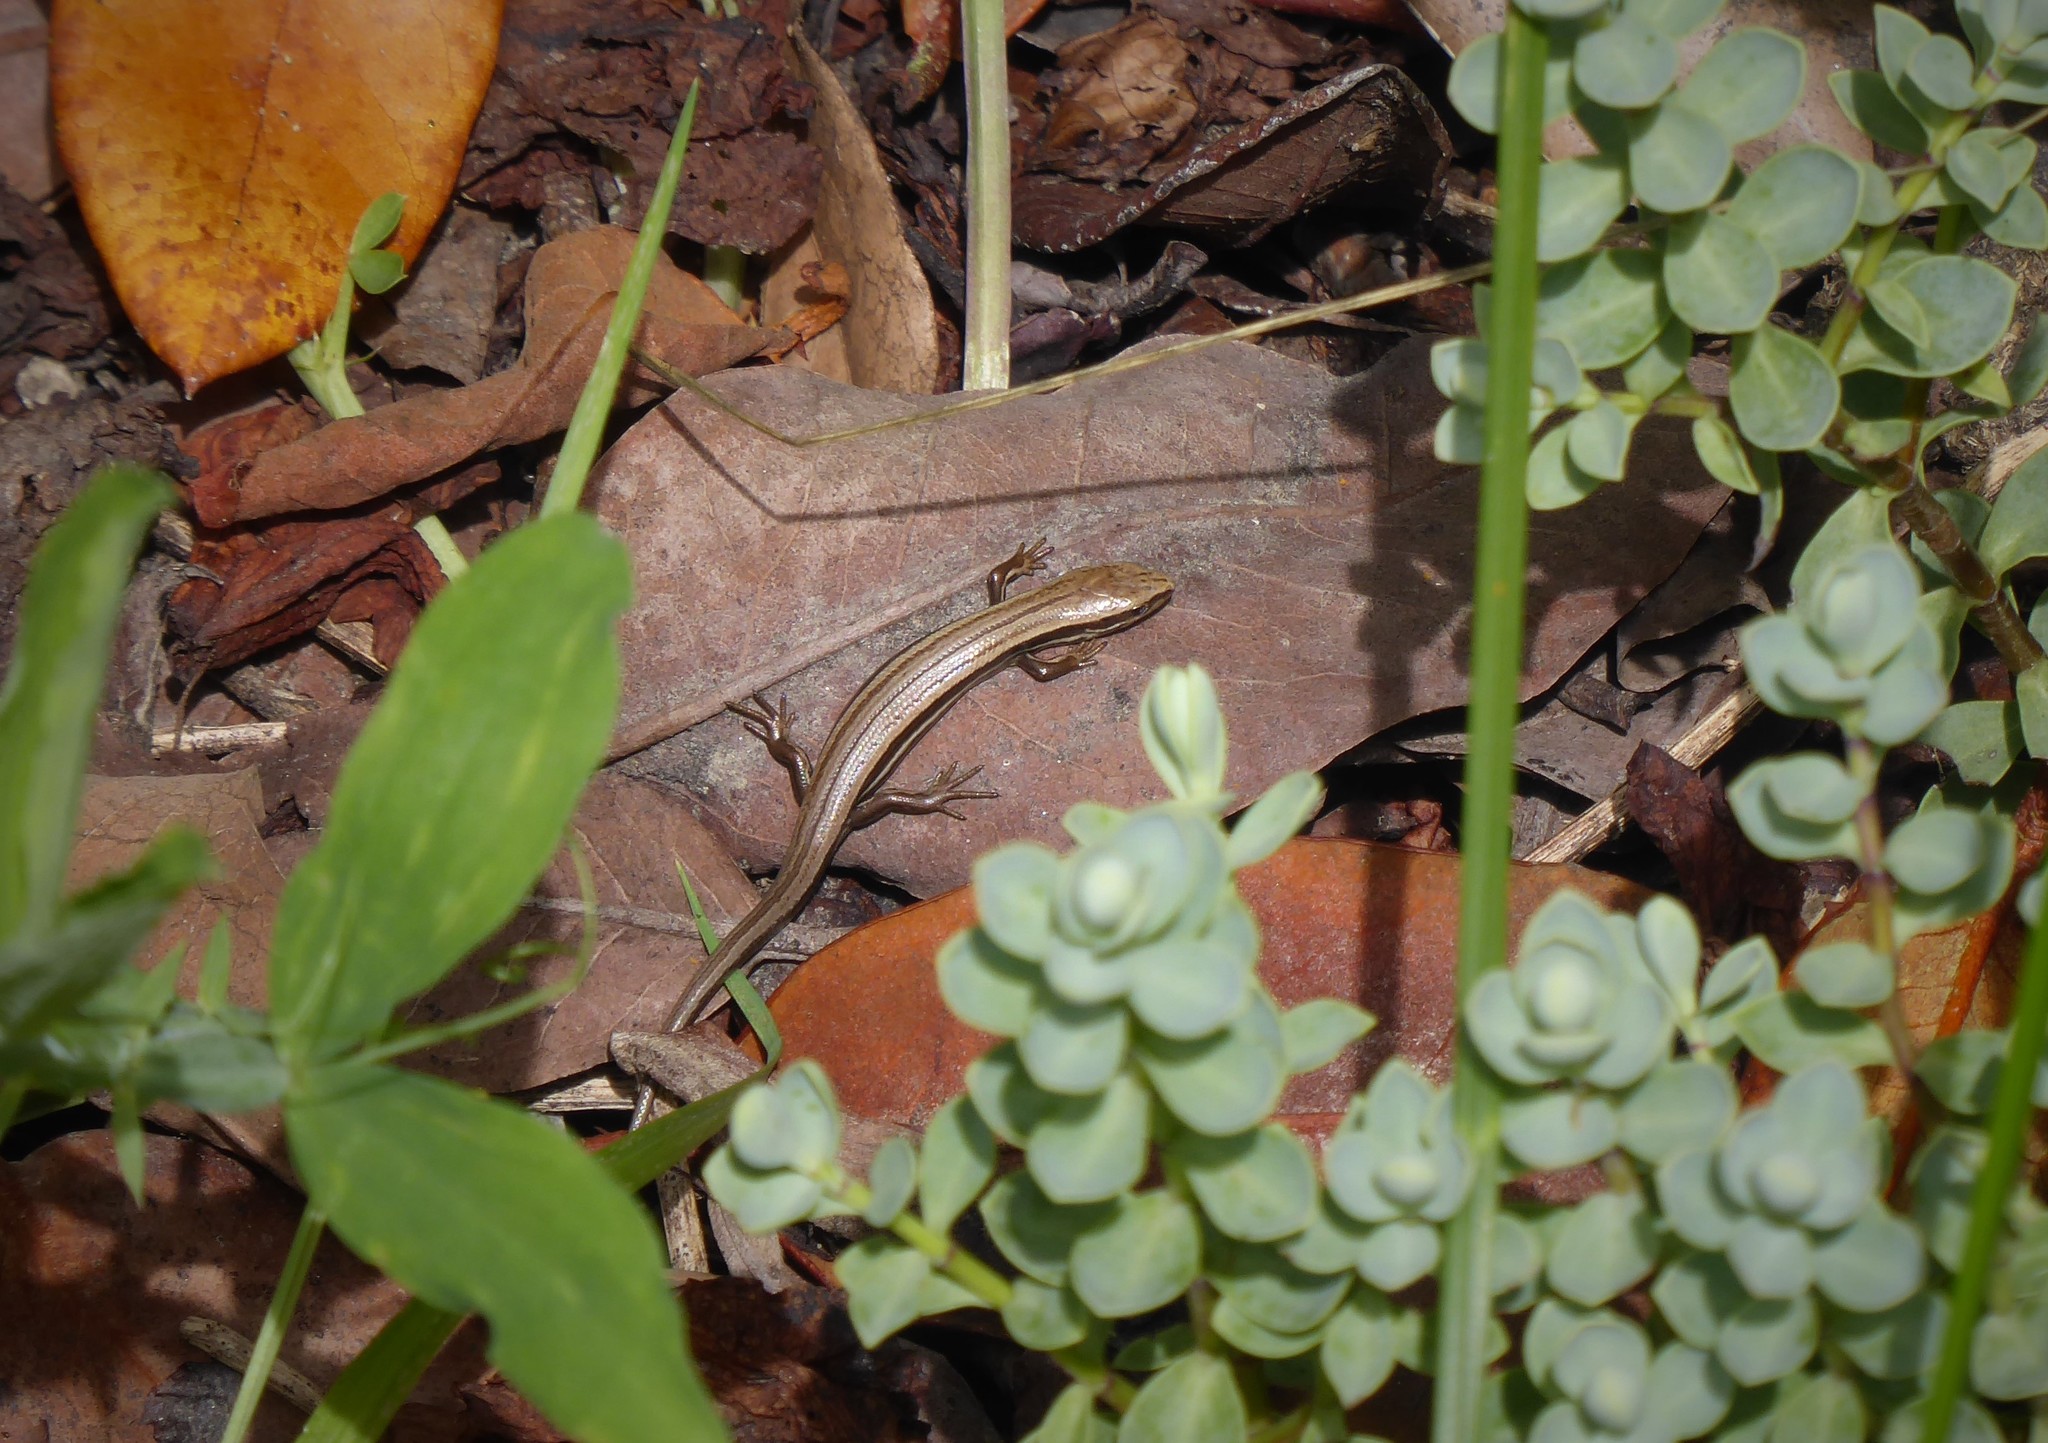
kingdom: Animalia
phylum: Chordata
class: Squamata
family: Scincidae
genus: Oligosoma
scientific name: Oligosoma polychroma
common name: Common new zealand skink
